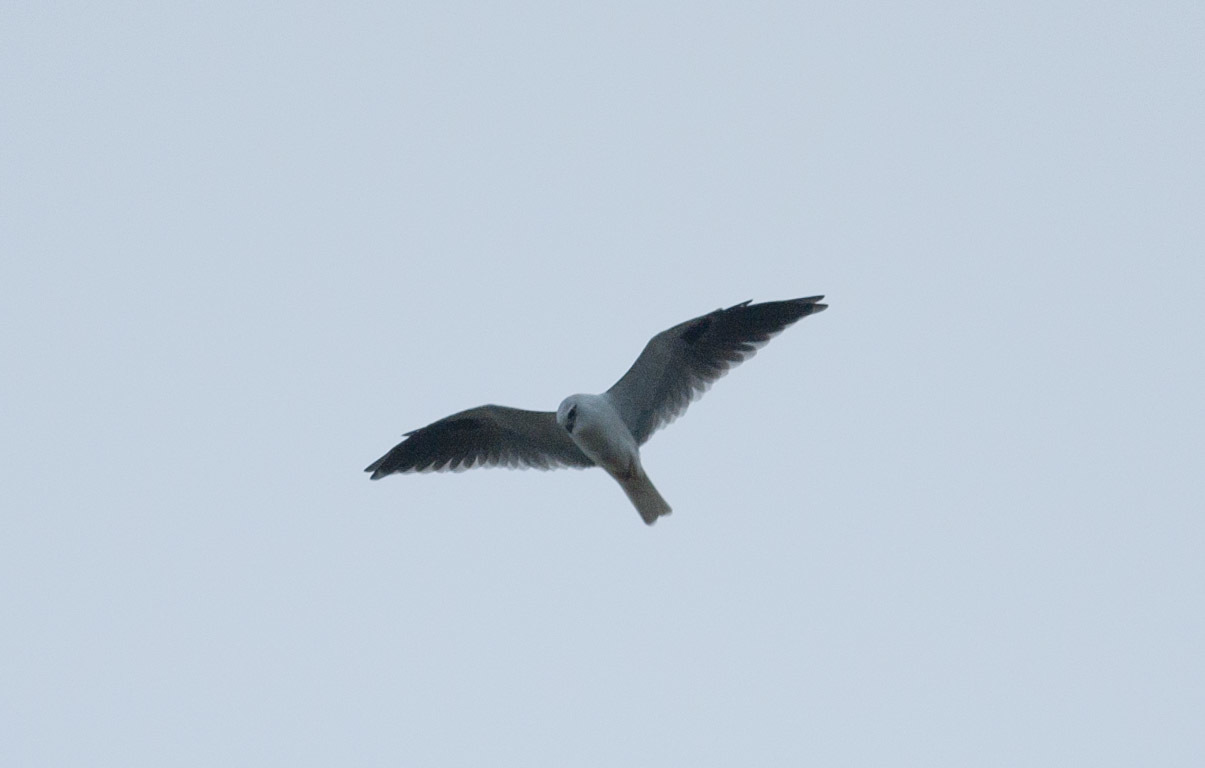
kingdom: Animalia
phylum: Chordata
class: Aves
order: Accipitriformes
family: Accipitridae
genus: Elanus
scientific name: Elanus axillaris
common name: Black-shouldered kite
